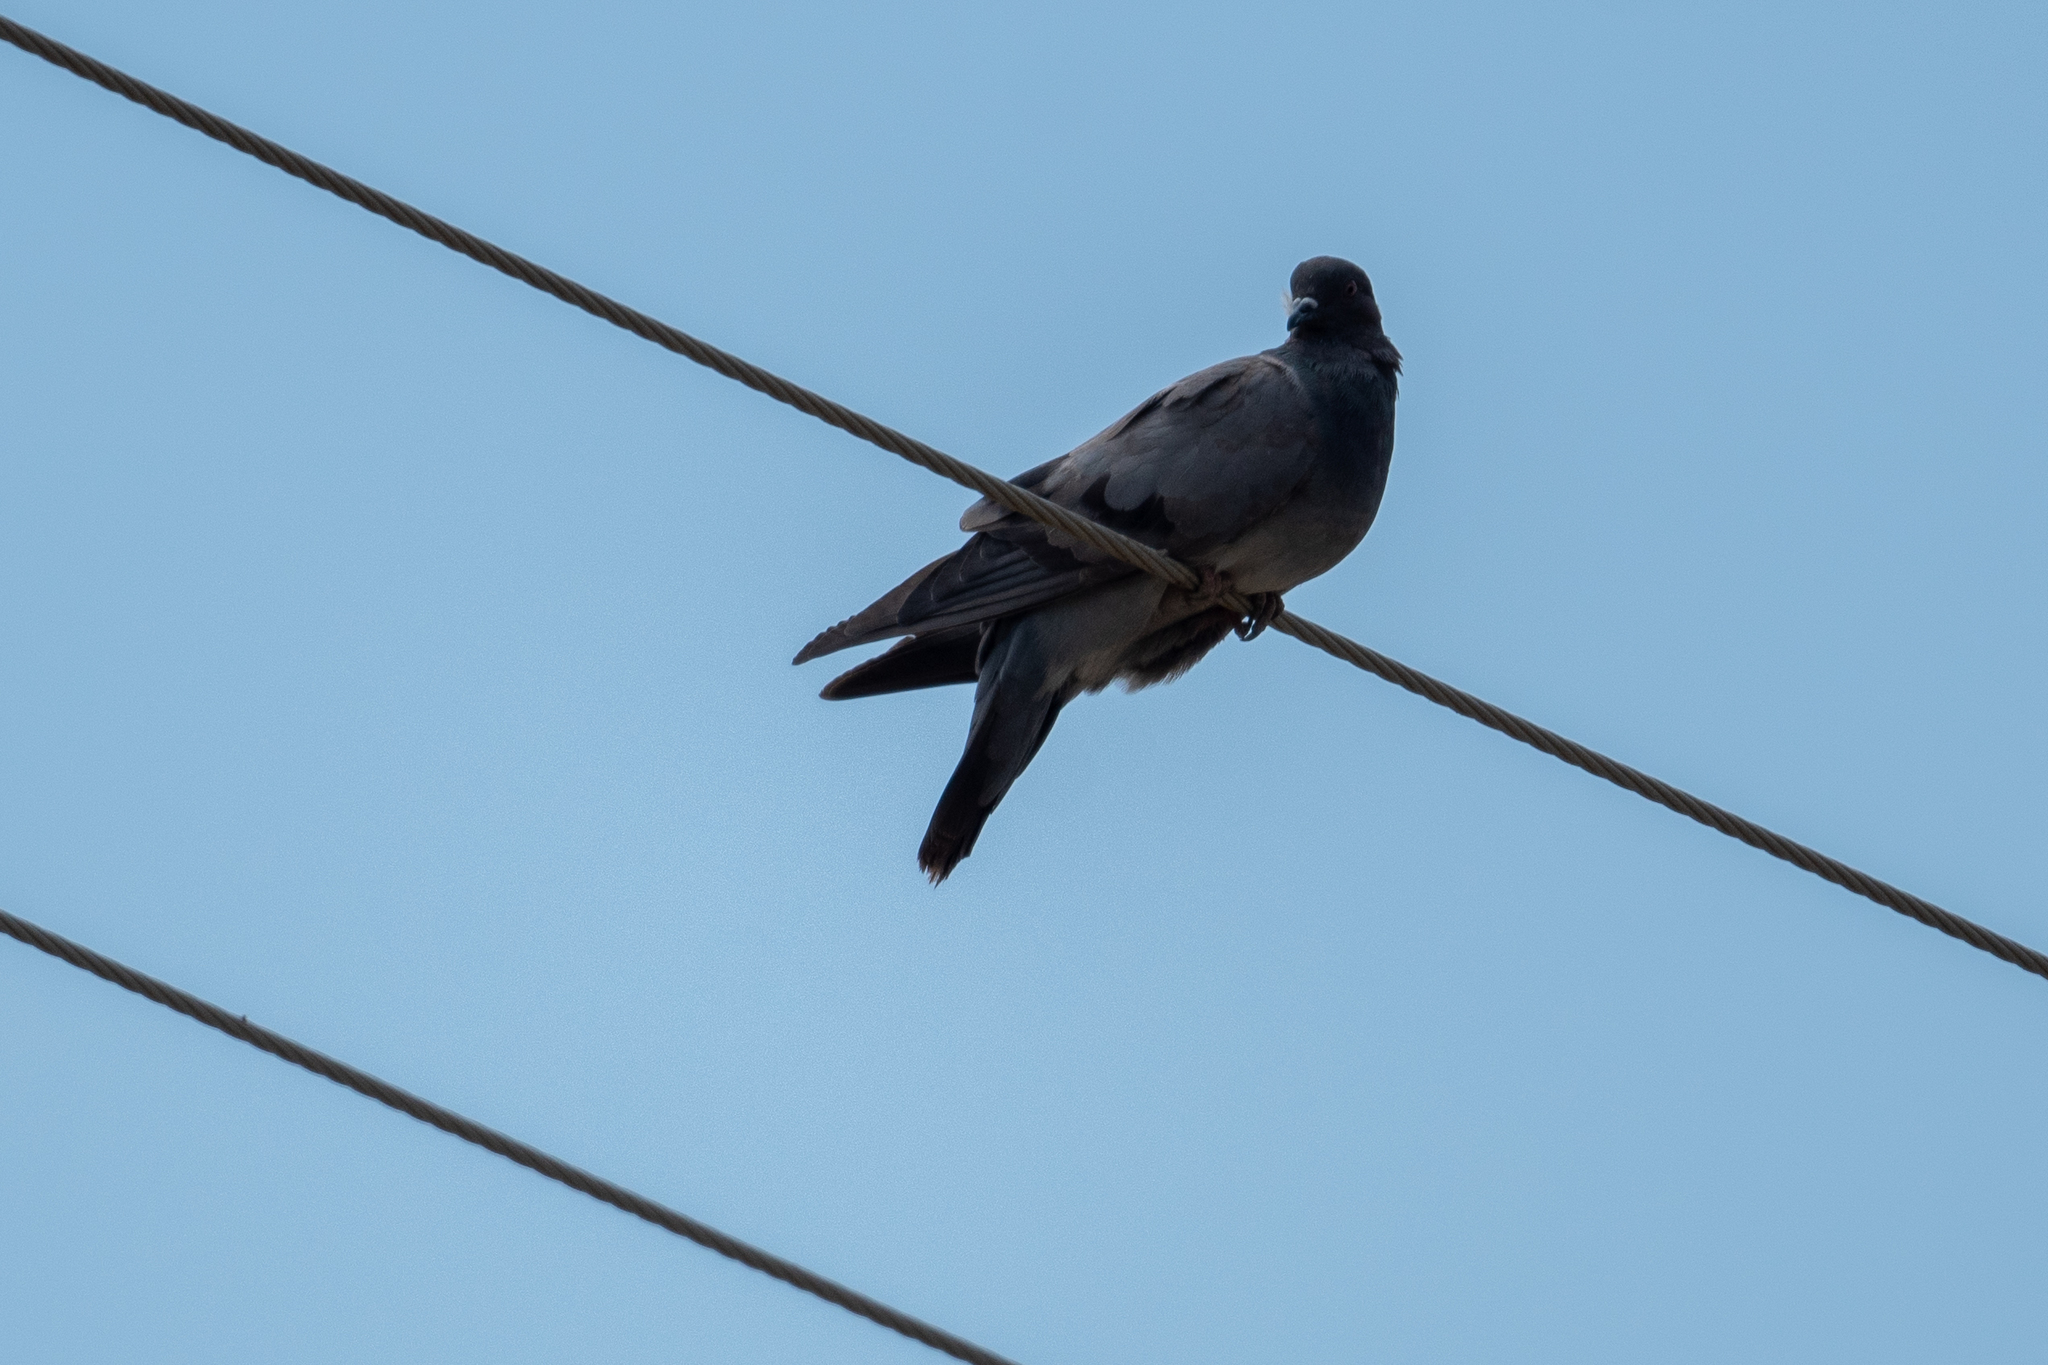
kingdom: Animalia
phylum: Chordata
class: Aves
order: Columbiformes
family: Columbidae
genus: Columba
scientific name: Columba livia
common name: Rock pigeon
